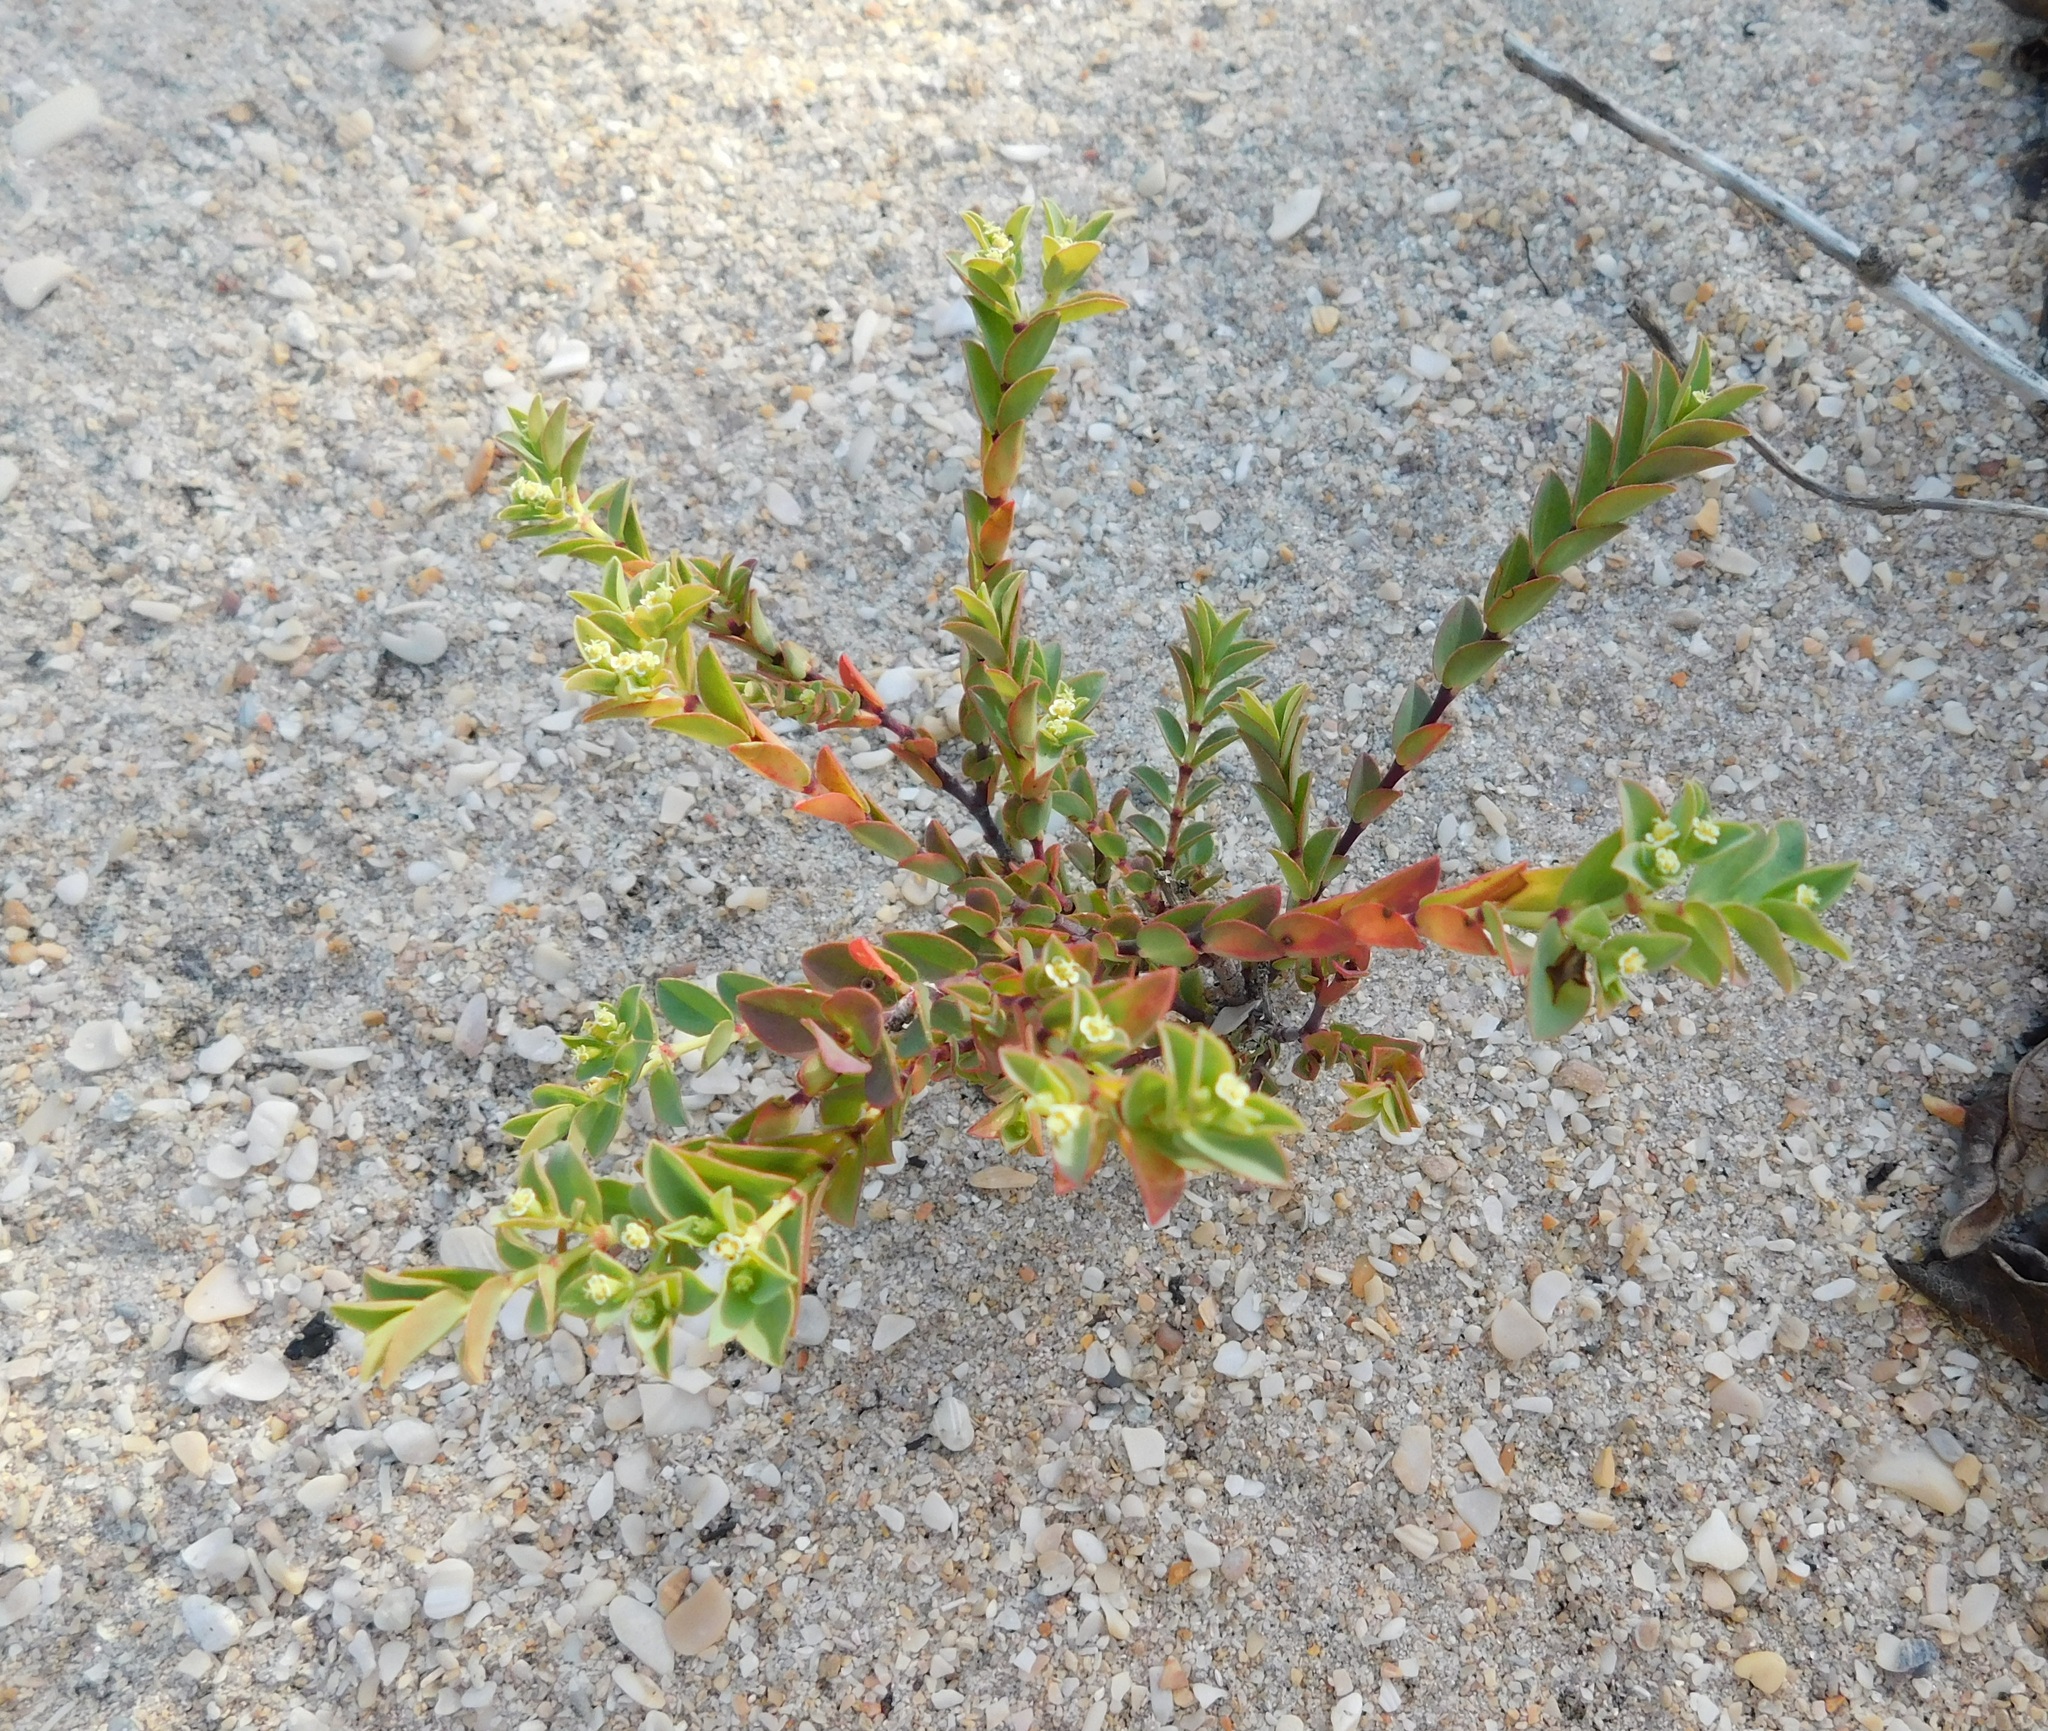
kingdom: Plantae
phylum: Tracheophyta
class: Magnoliopsida
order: Malpighiales
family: Euphorbiaceae
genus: Euphorbia
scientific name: Euphorbia mesembryanthemifolia
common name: Coastal beach sandmat
